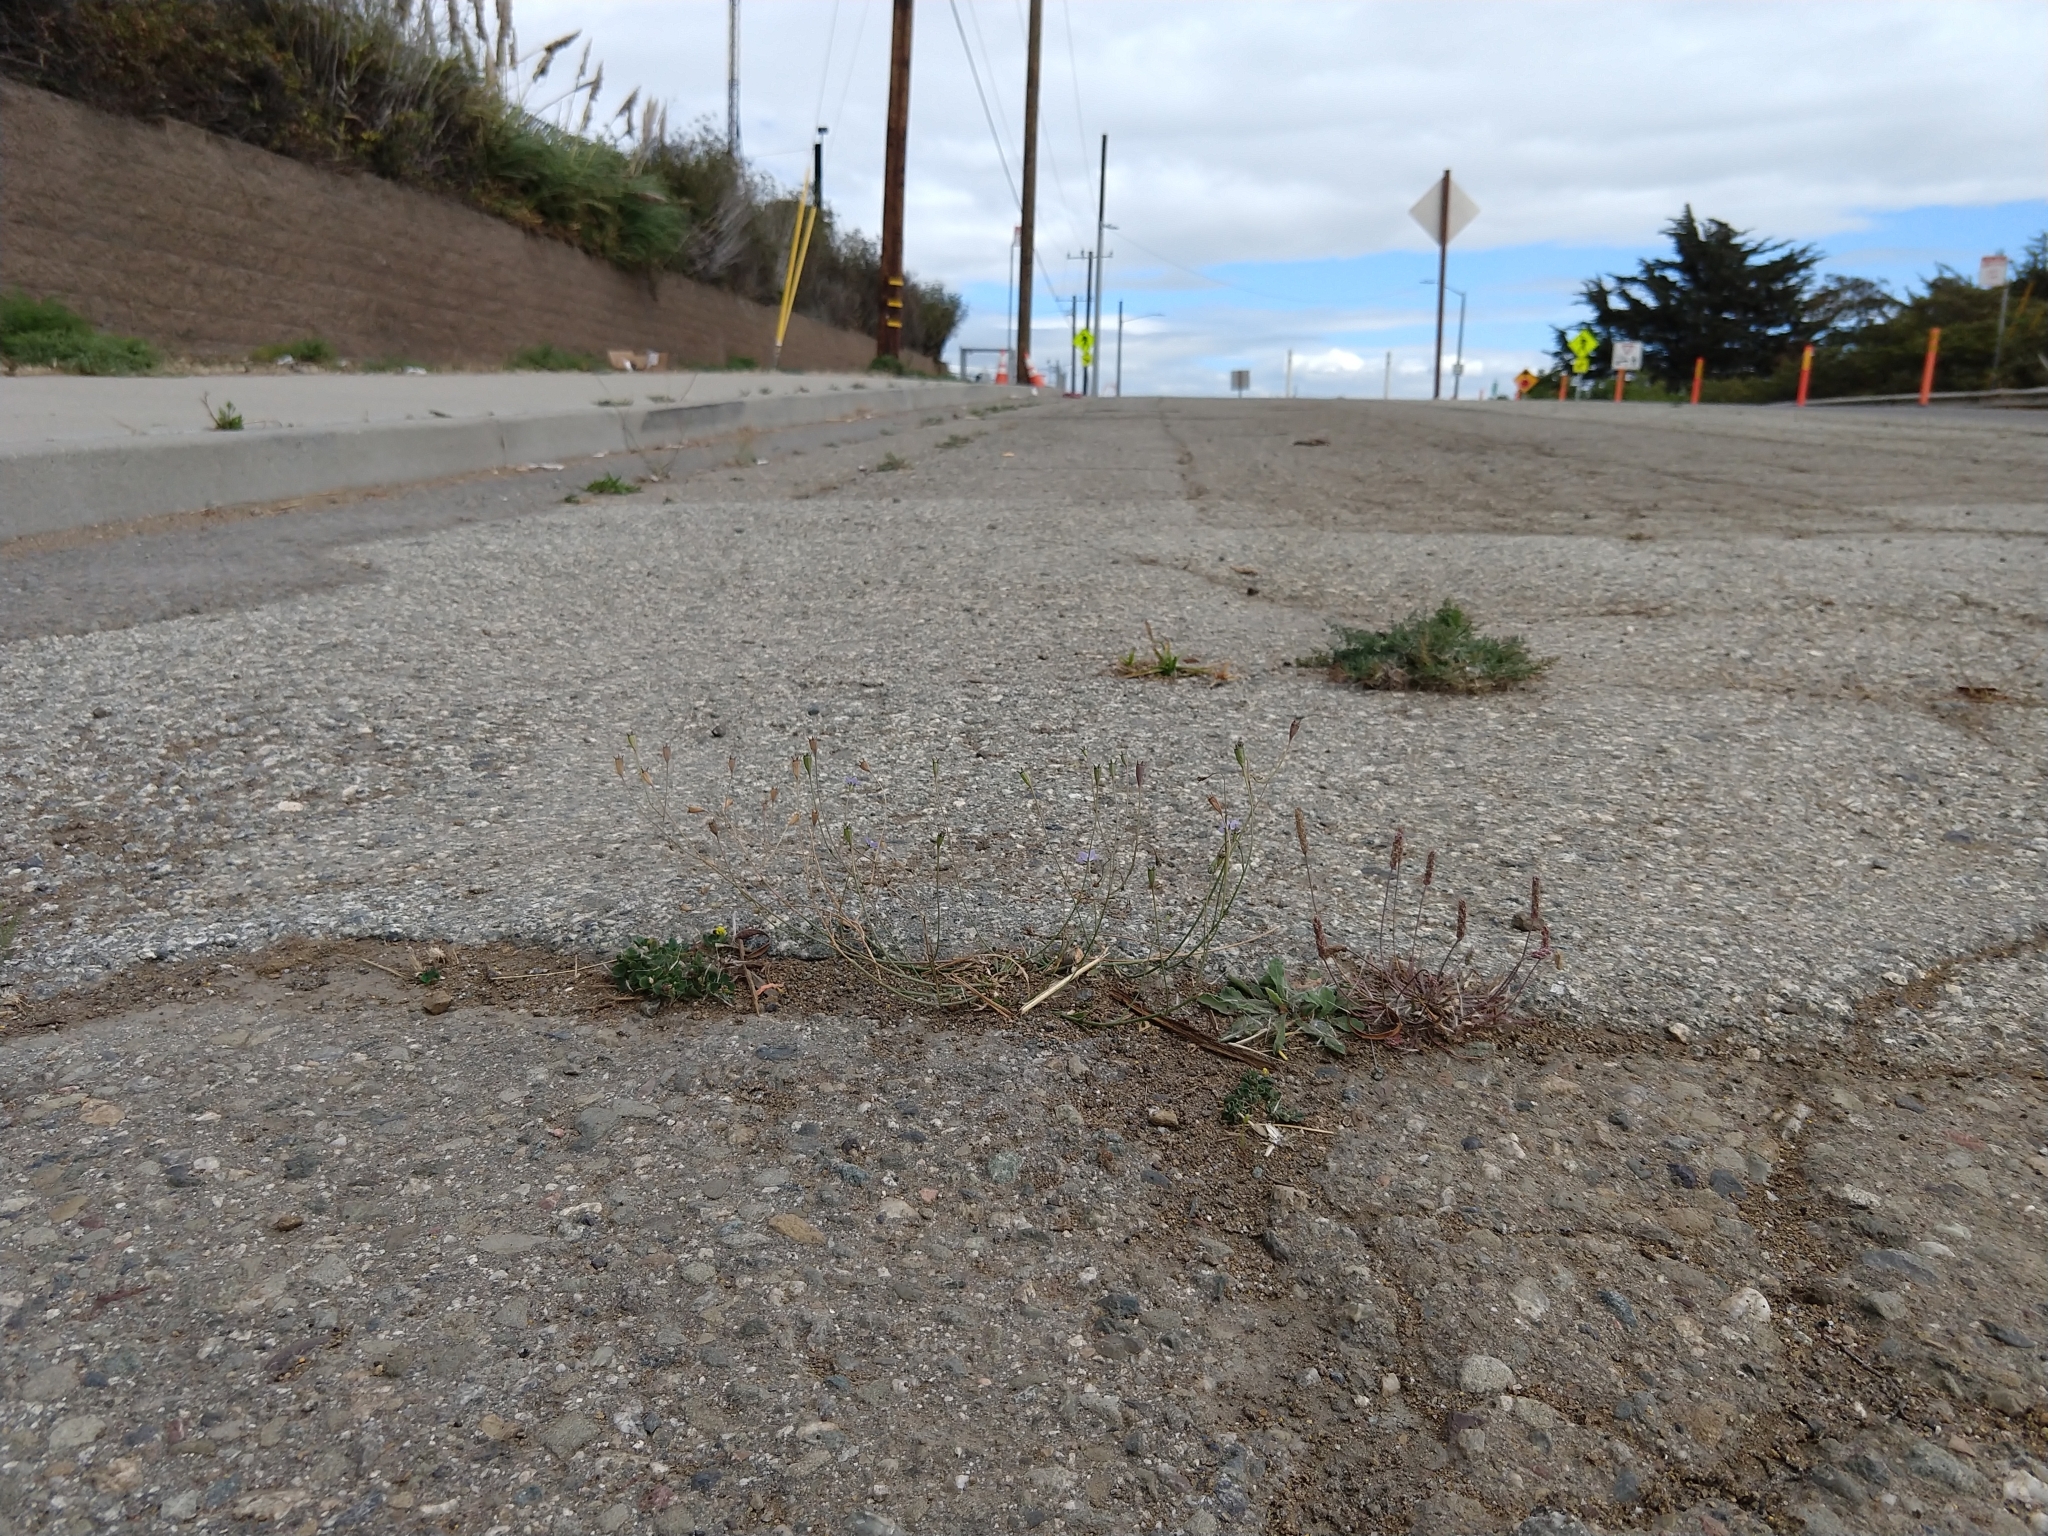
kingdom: Plantae
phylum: Tracheophyta
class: Magnoliopsida
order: Asterales
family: Campanulaceae
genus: Wahlenbergia
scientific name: Wahlenbergia marginata
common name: Southern rockbell
